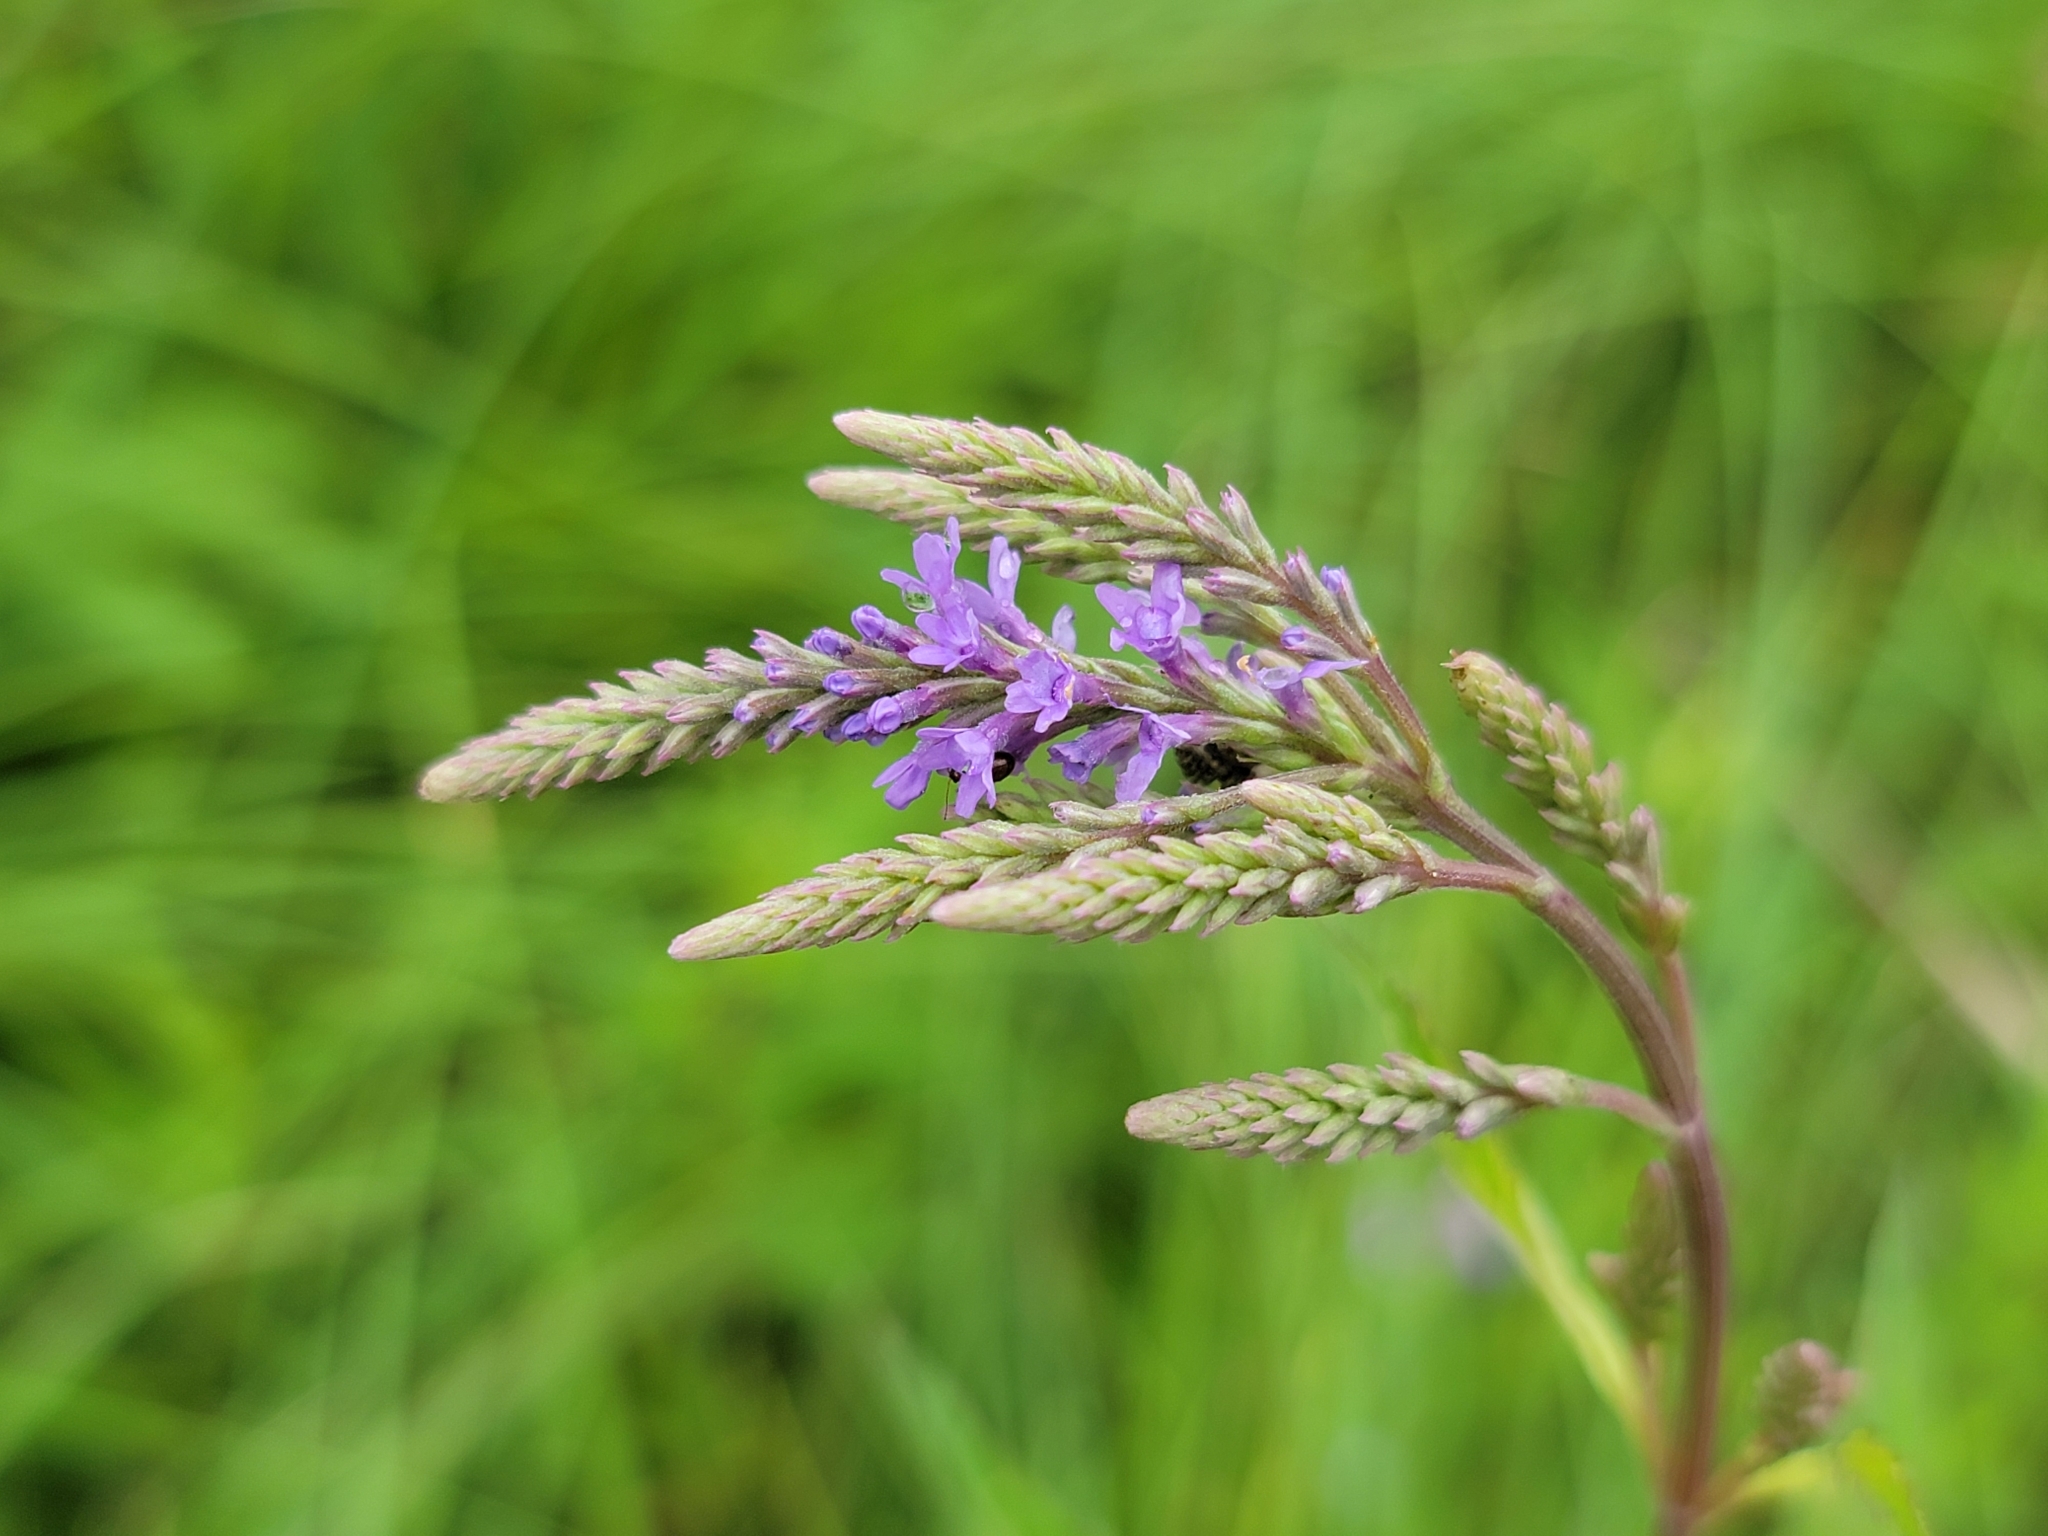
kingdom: Plantae
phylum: Tracheophyta
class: Magnoliopsida
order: Lamiales
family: Verbenaceae
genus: Verbena
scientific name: Verbena hastata
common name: American blue vervain
